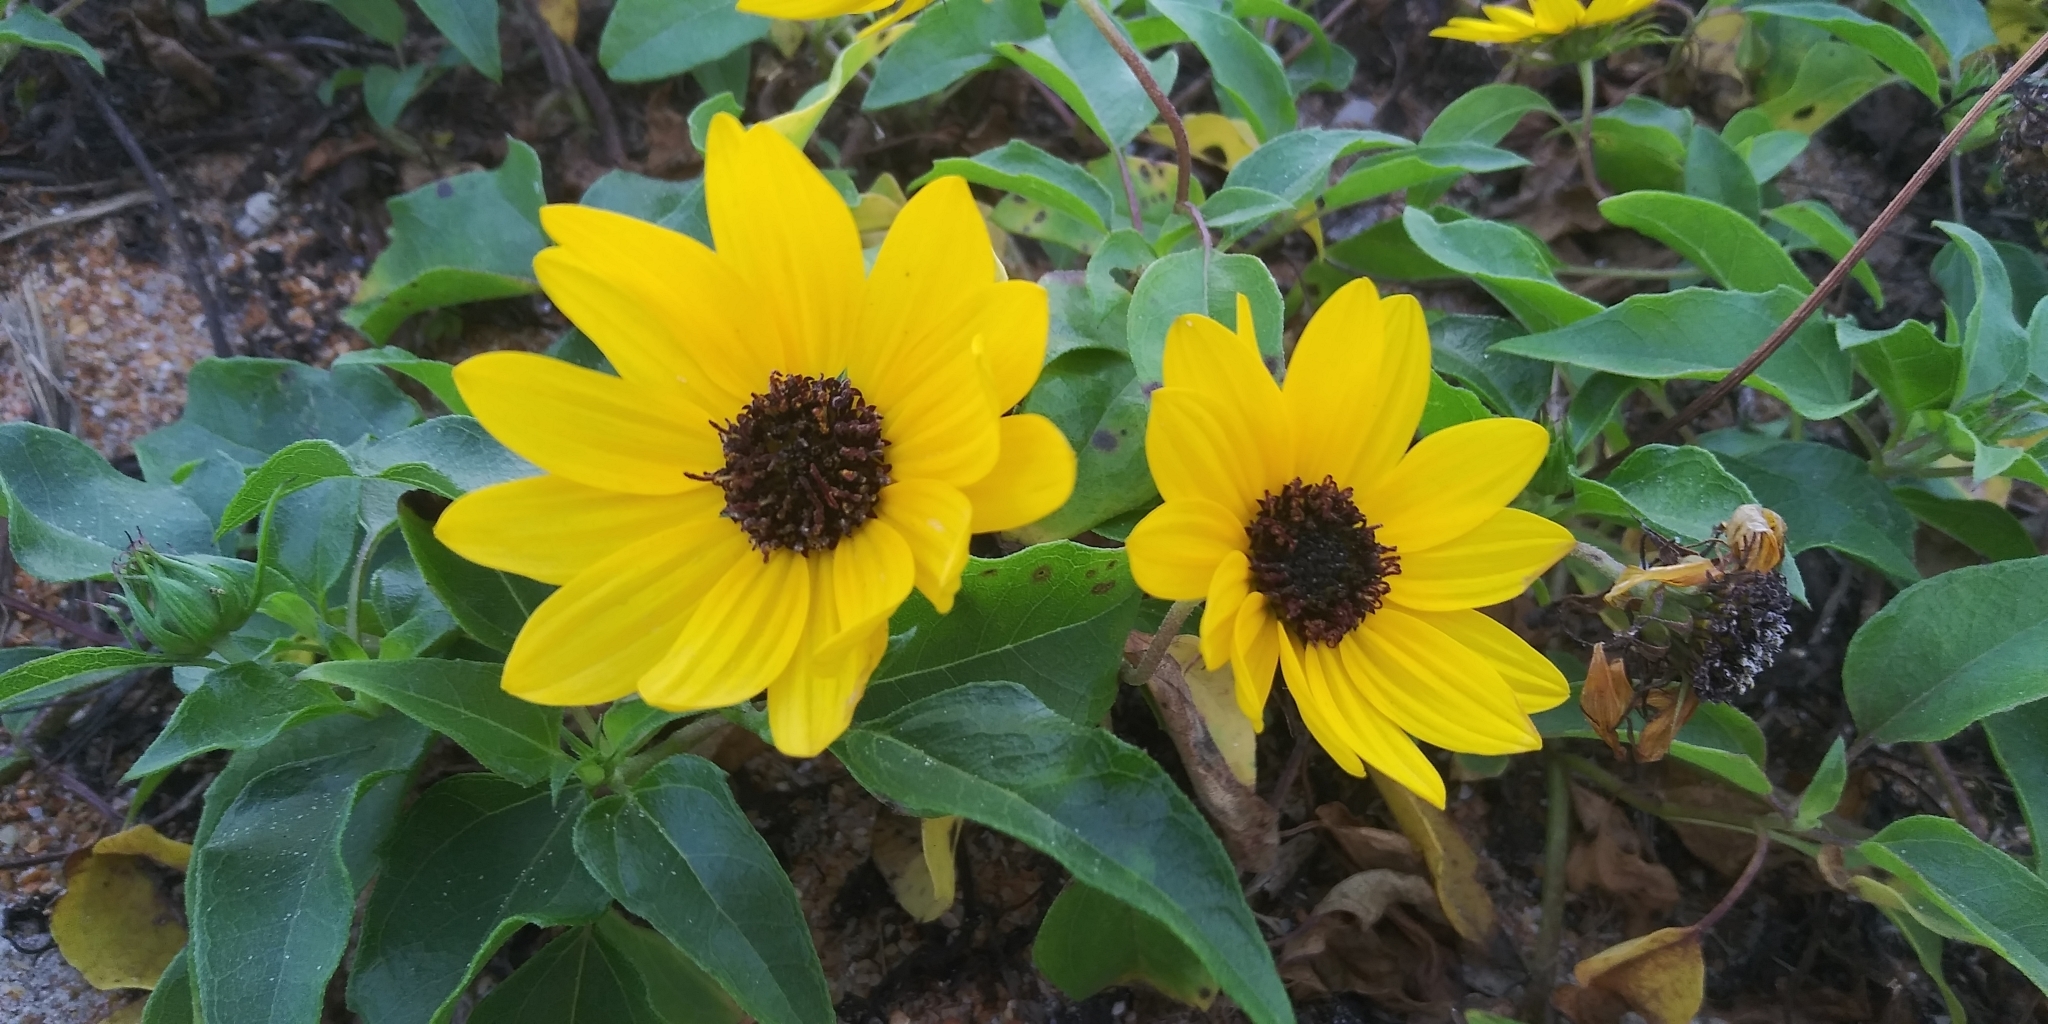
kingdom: Plantae
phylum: Tracheophyta
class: Magnoliopsida
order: Asterales
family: Asteraceae
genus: Helianthus
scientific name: Helianthus debilis
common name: Weak sunflower
